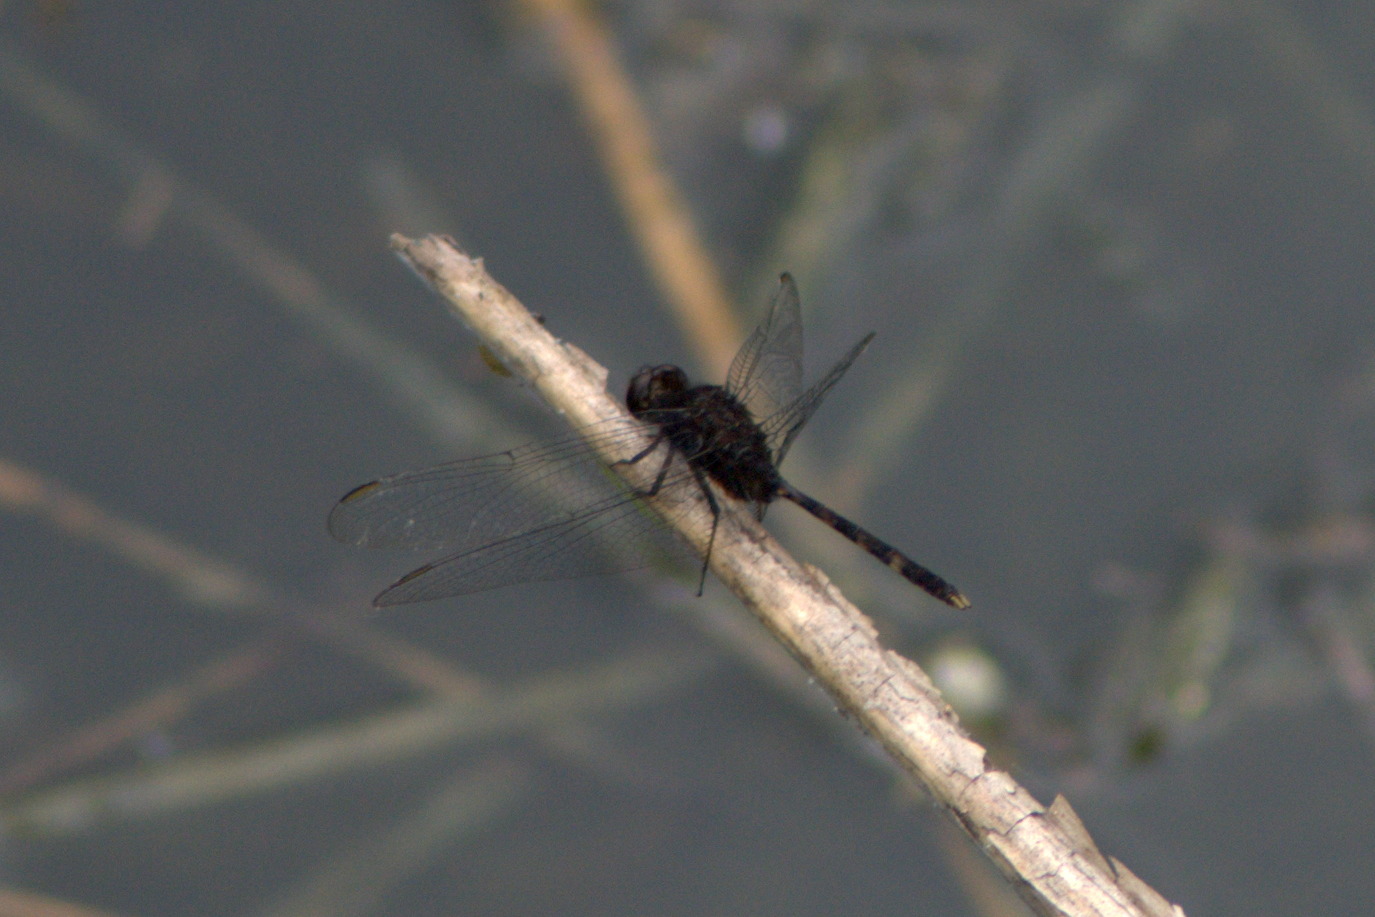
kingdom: Animalia
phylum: Arthropoda
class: Insecta
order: Odonata
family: Libellulidae
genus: Erythemis
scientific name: Erythemis plebeja
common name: Pin-tailed pondhawk
